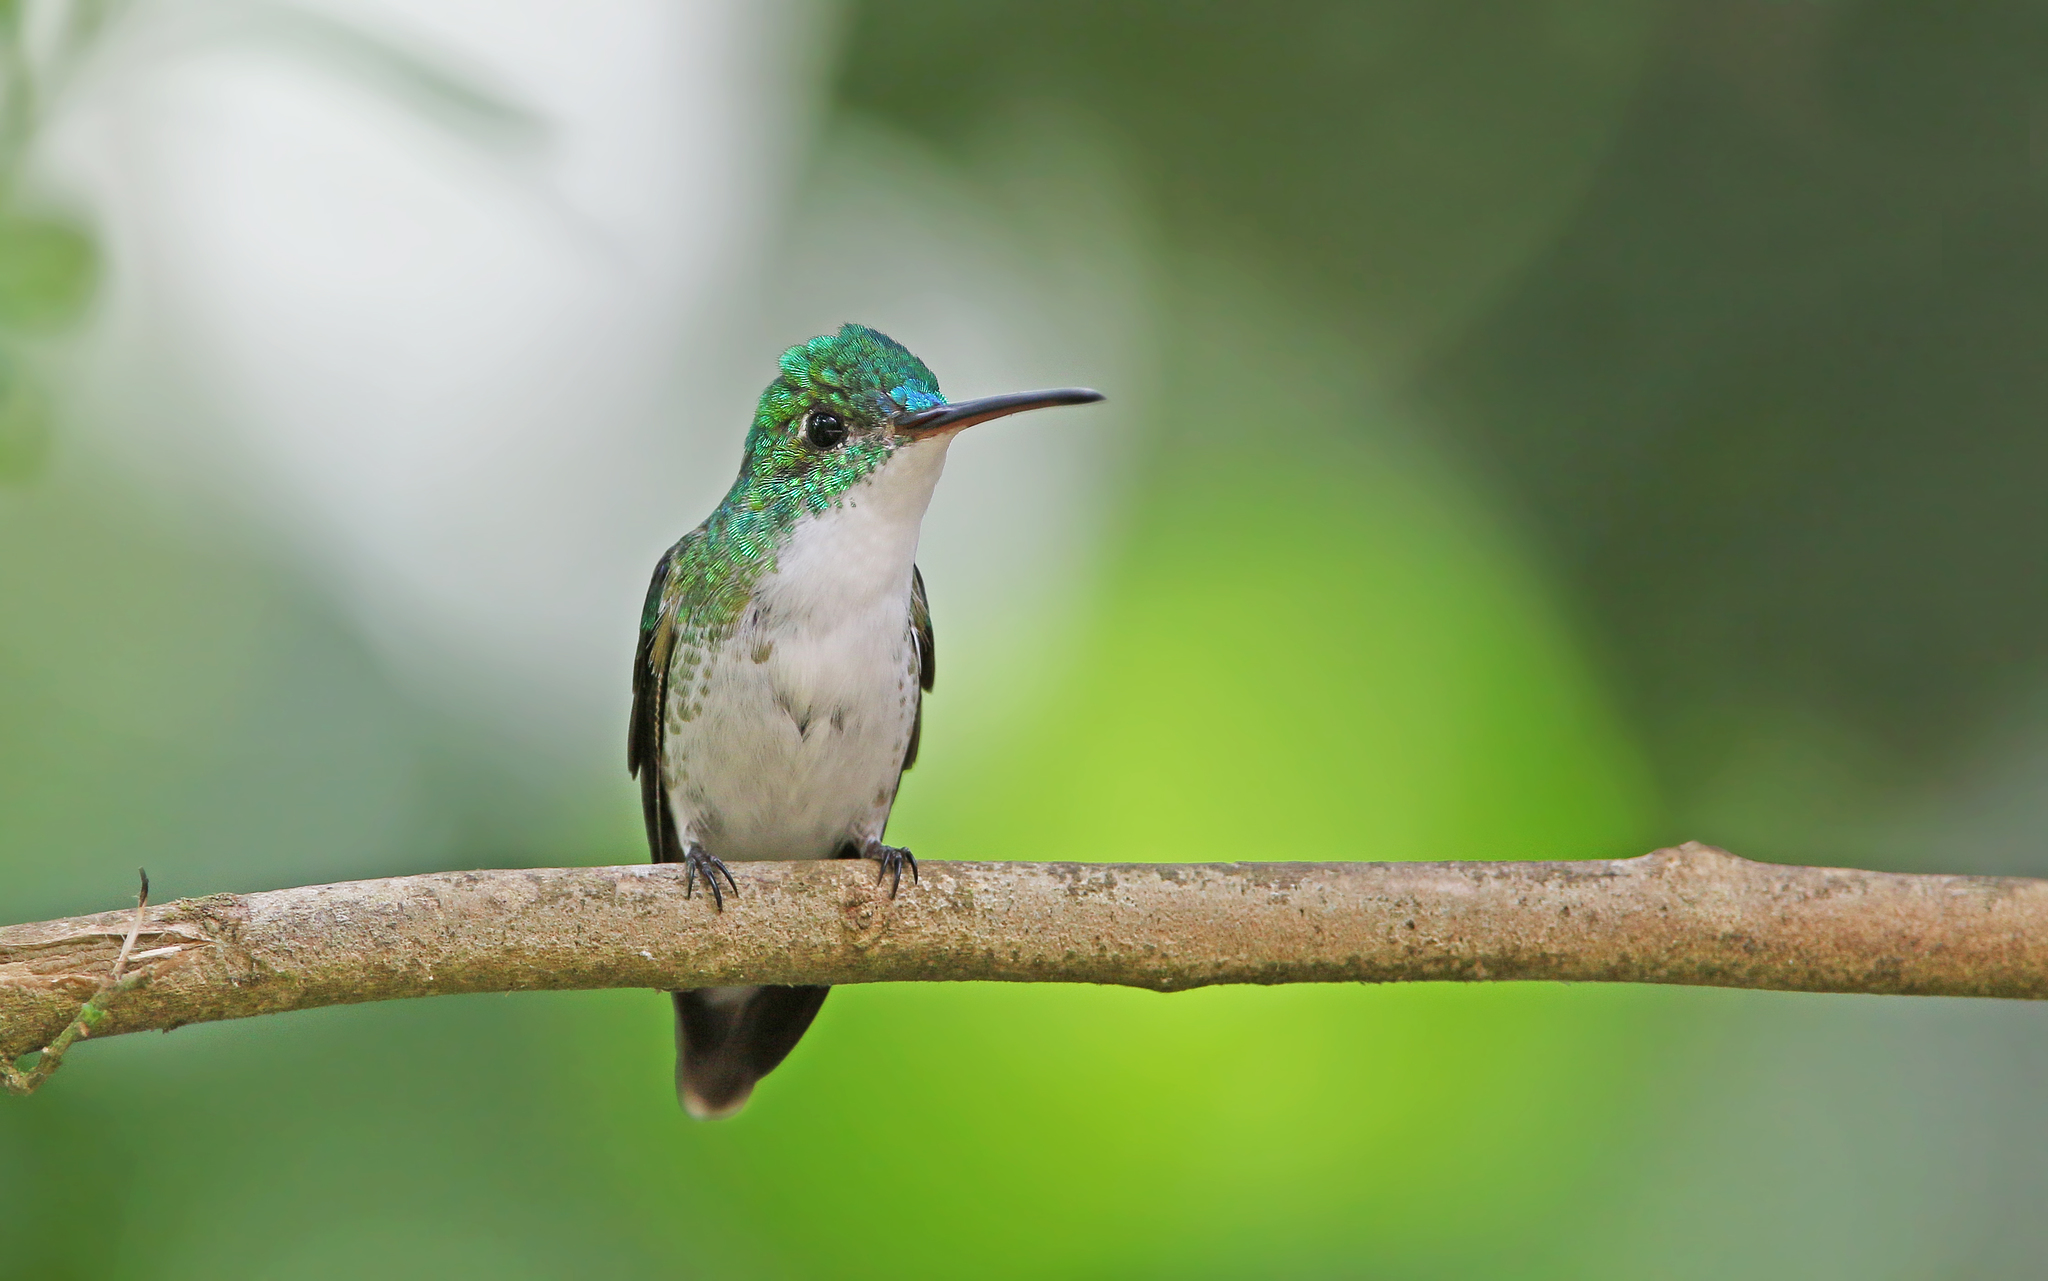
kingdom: Animalia
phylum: Chordata
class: Aves
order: Apodiformes
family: Trochilidae
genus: Uranomitra
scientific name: Uranomitra franciae
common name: Andean emerald
